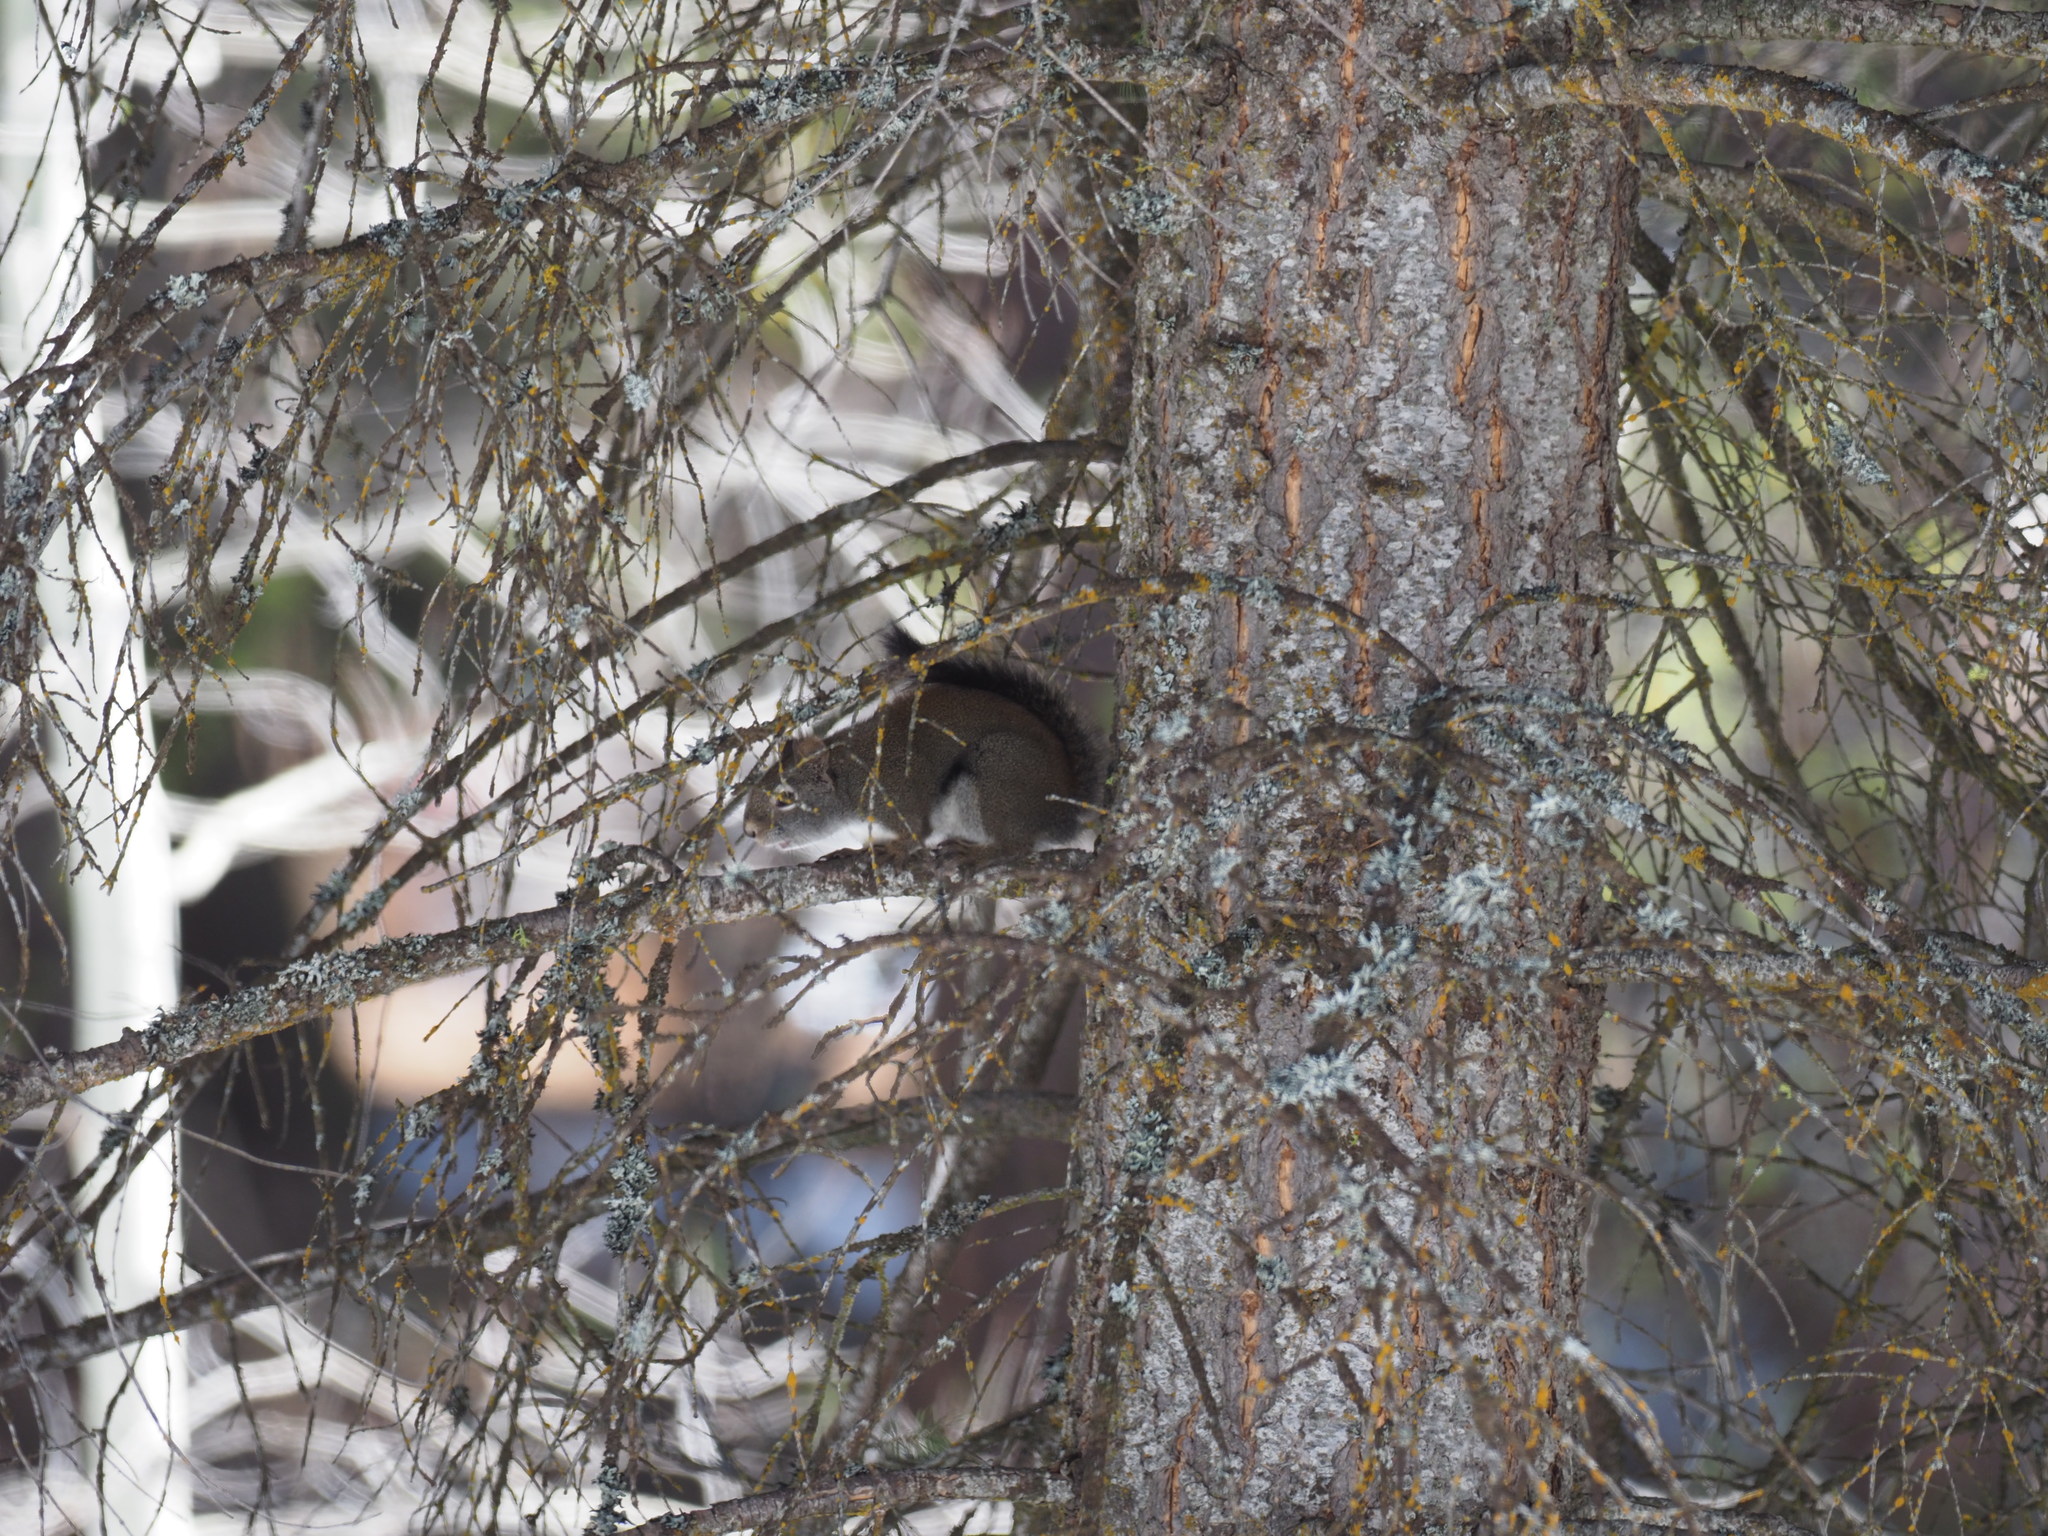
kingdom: Animalia
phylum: Chordata
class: Mammalia
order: Rodentia
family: Sciuridae
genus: Tamiasciurus
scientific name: Tamiasciurus hudsonicus
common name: Red squirrel
